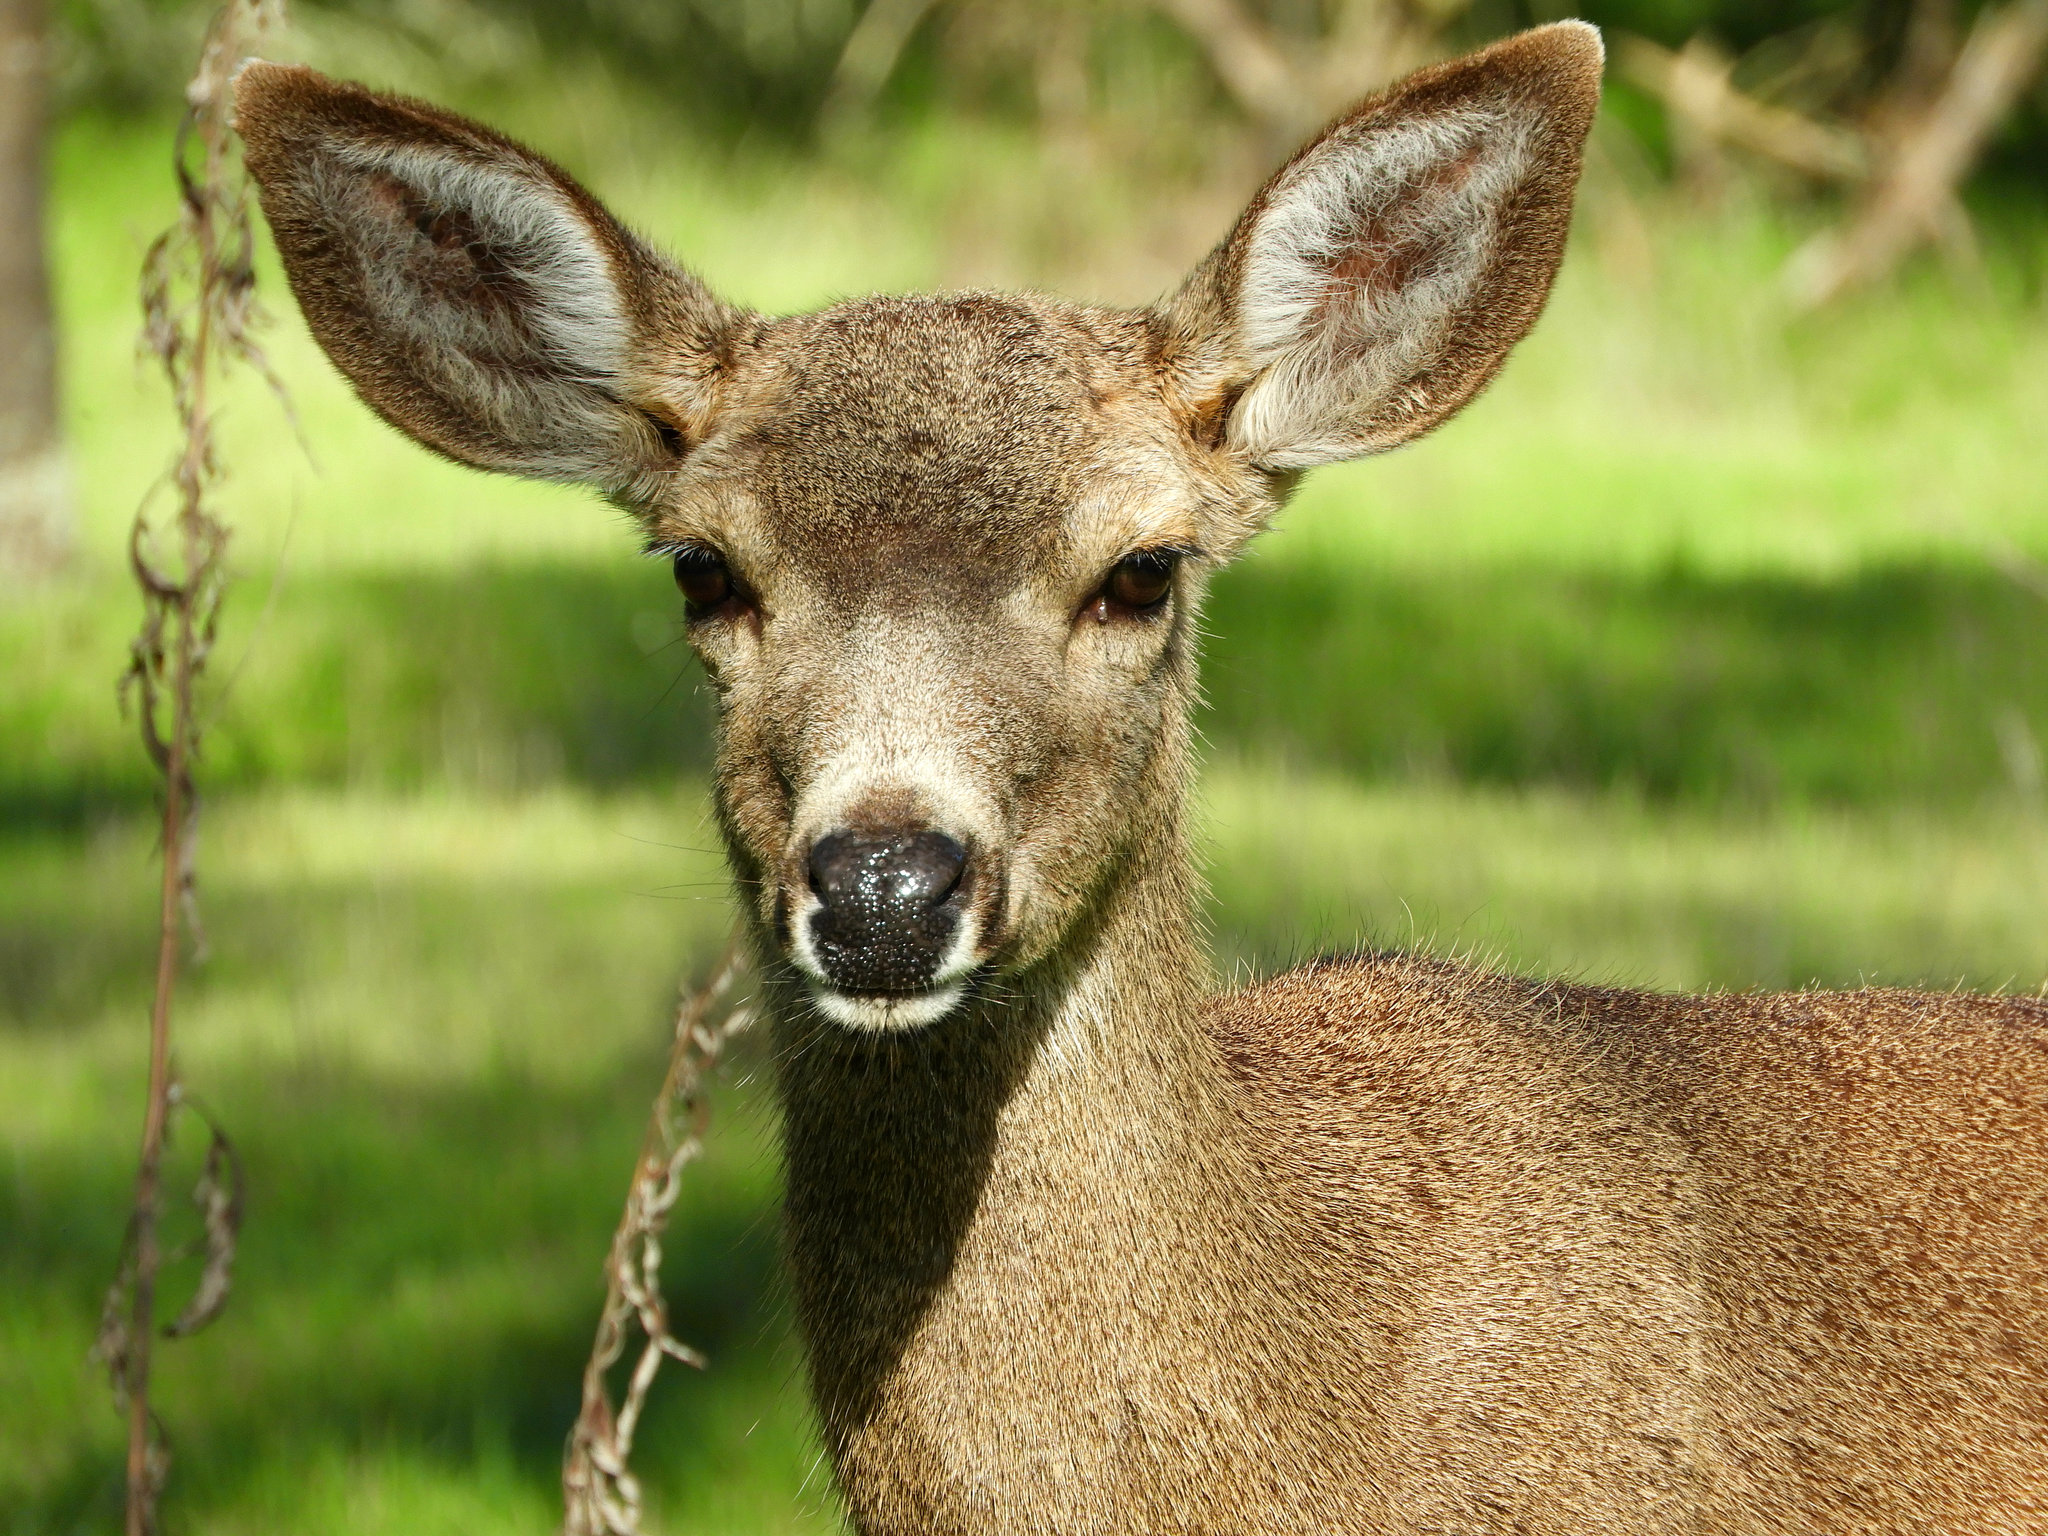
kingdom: Animalia
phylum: Chordata
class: Mammalia
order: Artiodactyla
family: Cervidae
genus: Odocoileus
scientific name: Odocoileus hemionus
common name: Mule deer
